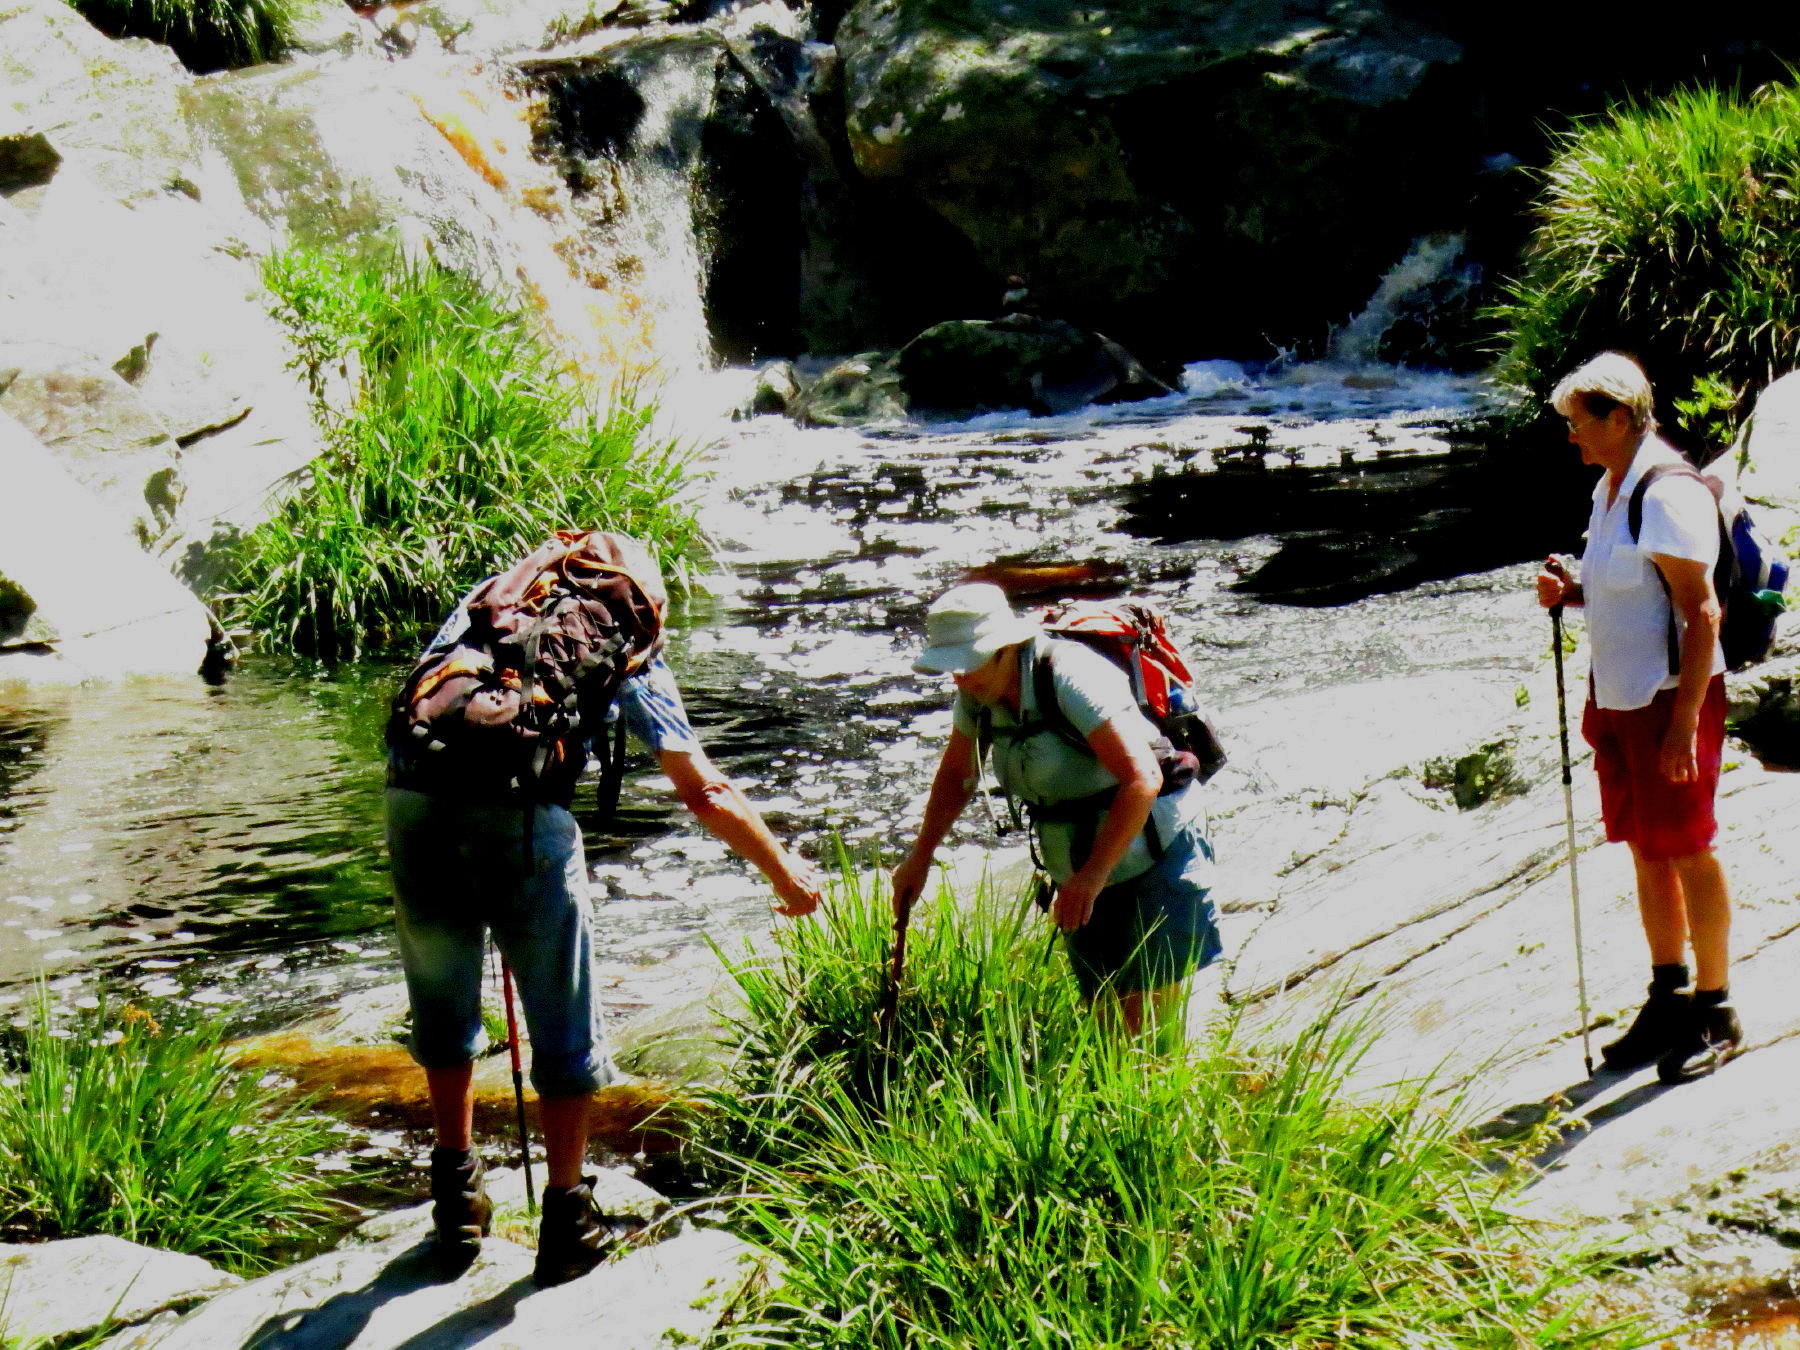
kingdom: Plantae
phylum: Tracheophyta
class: Liliopsida
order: Poales
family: Thurniaceae
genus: Prionium
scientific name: Prionium serratum
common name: Palmiet
